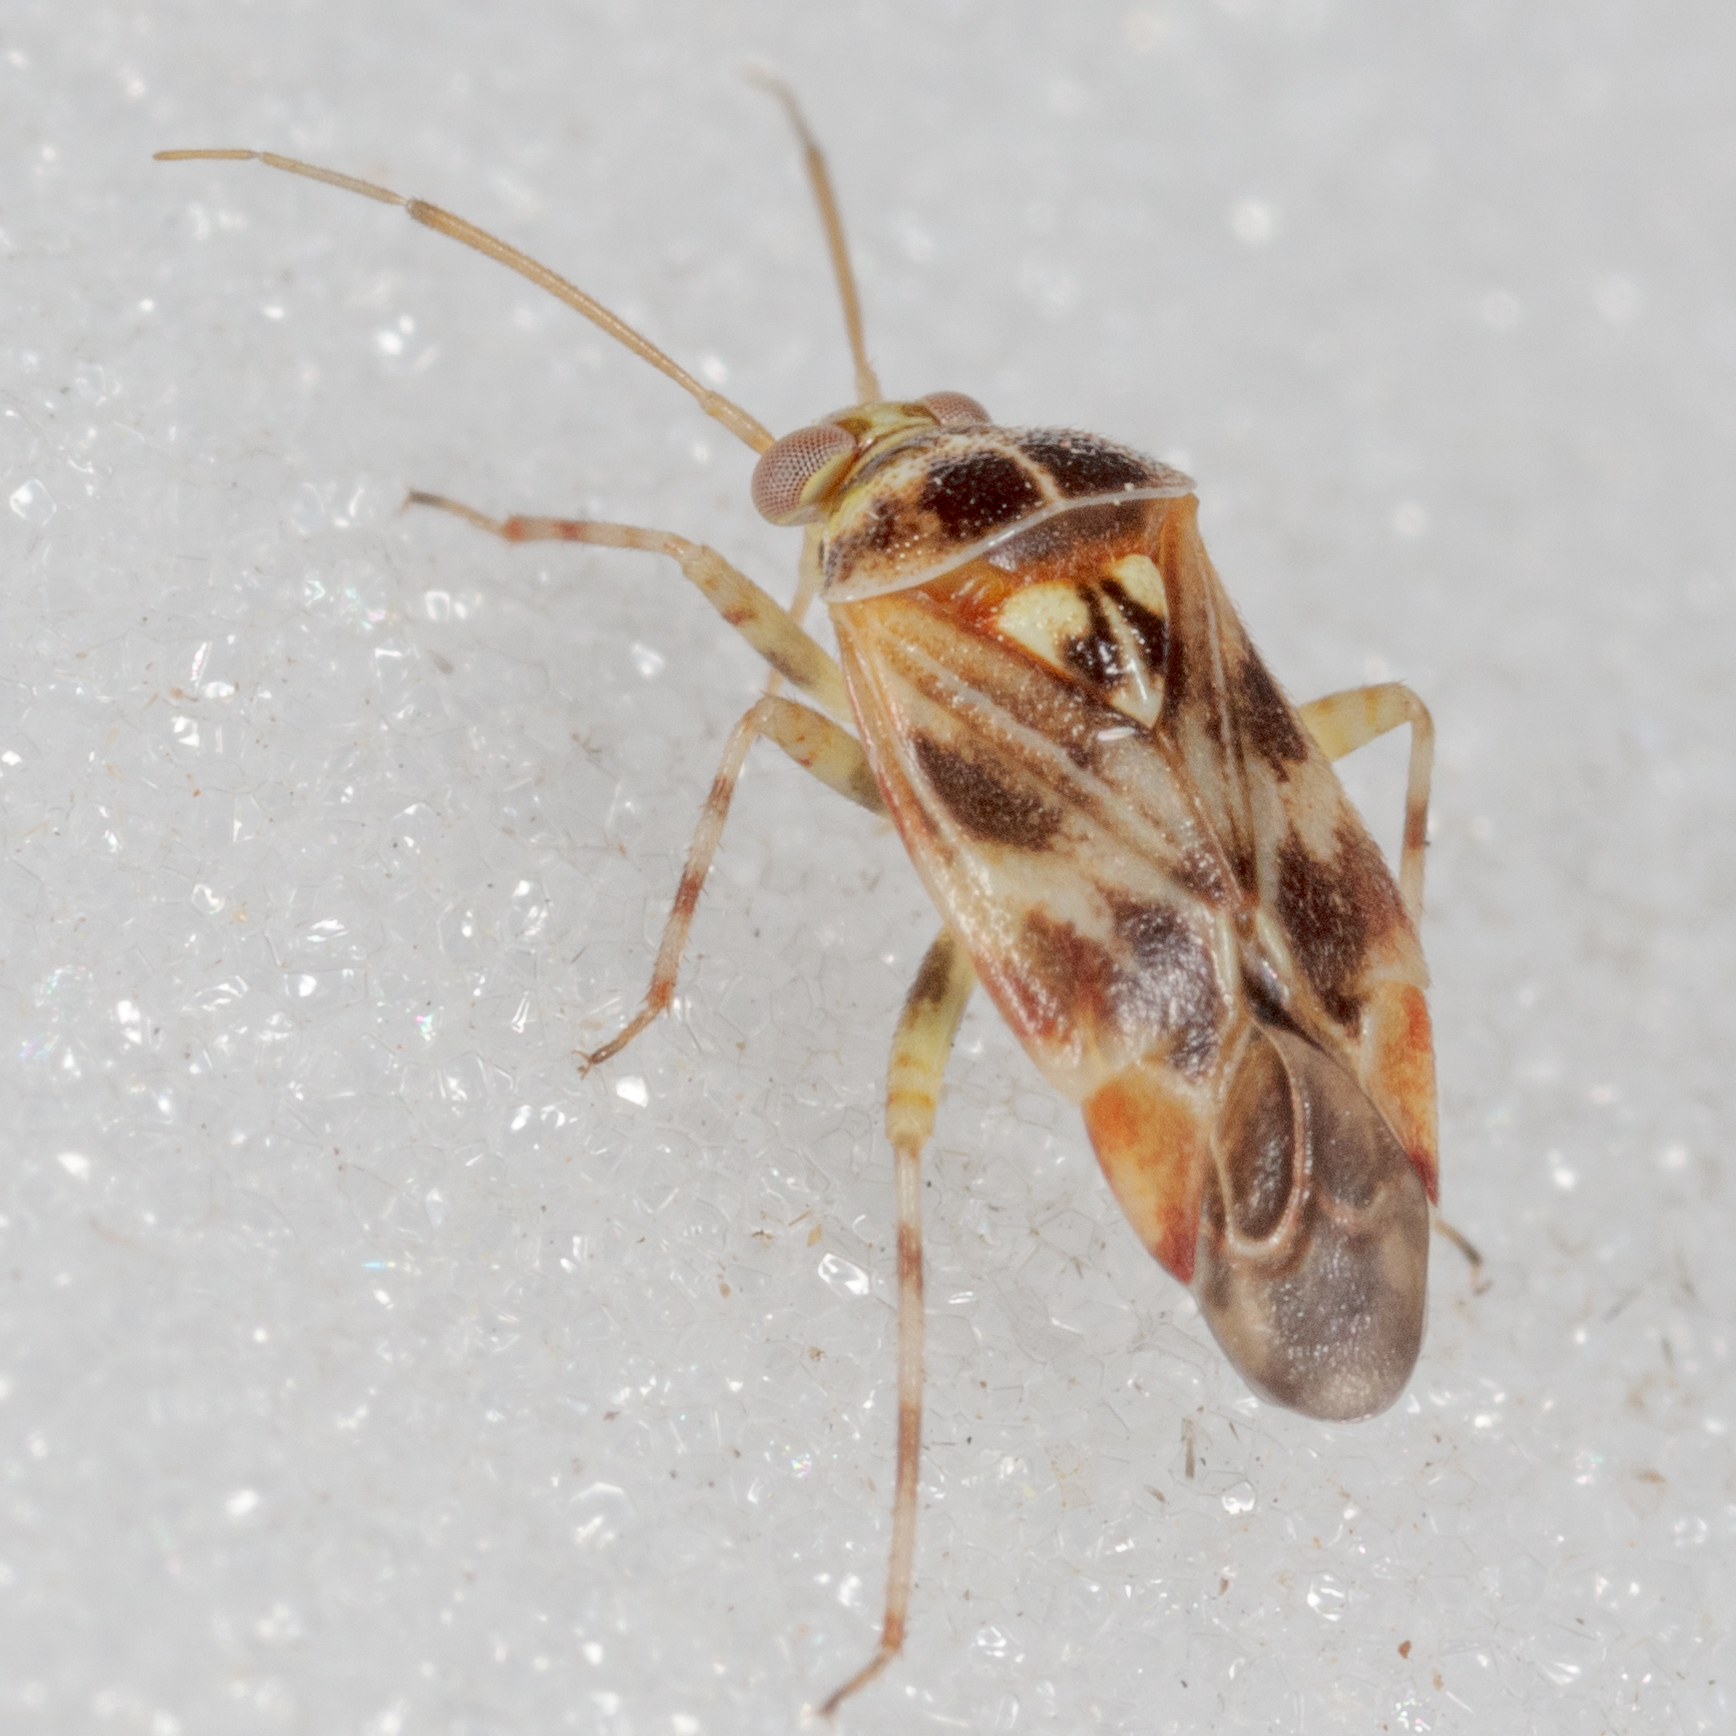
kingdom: Animalia
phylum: Arthropoda
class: Insecta
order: Hemiptera
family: Miridae
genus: Tropidosteptes
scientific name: Tropidosteptes quercicola
